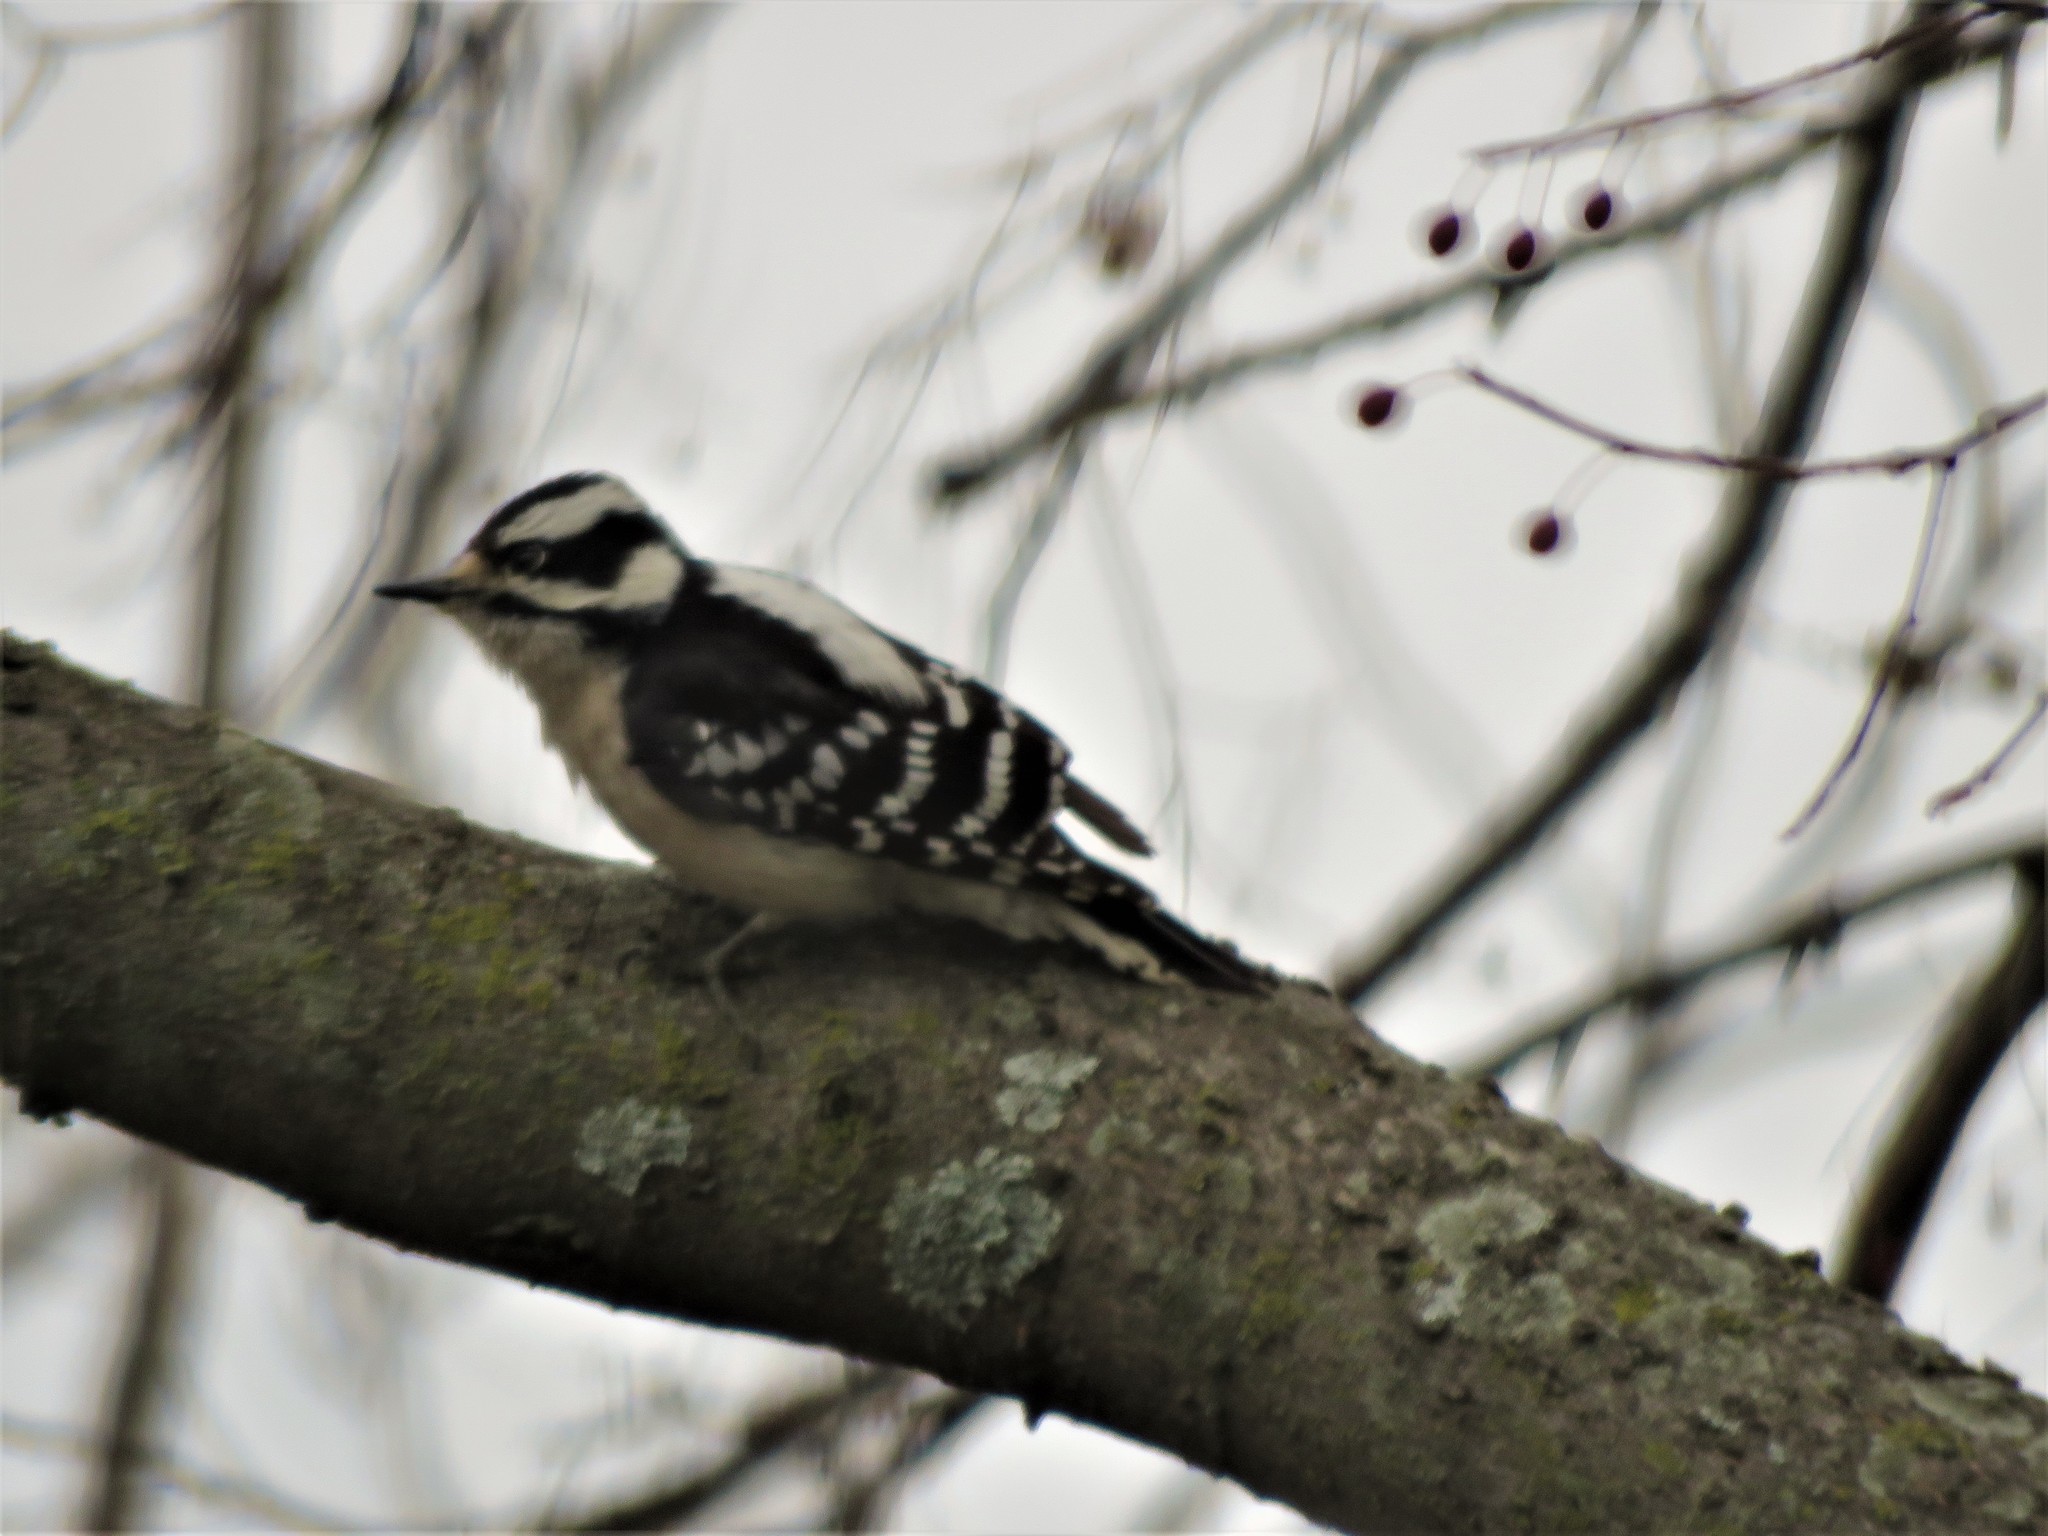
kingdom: Animalia
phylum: Chordata
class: Aves
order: Piciformes
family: Picidae
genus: Dryobates
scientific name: Dryobates pubescens
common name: Downy woodpecker
